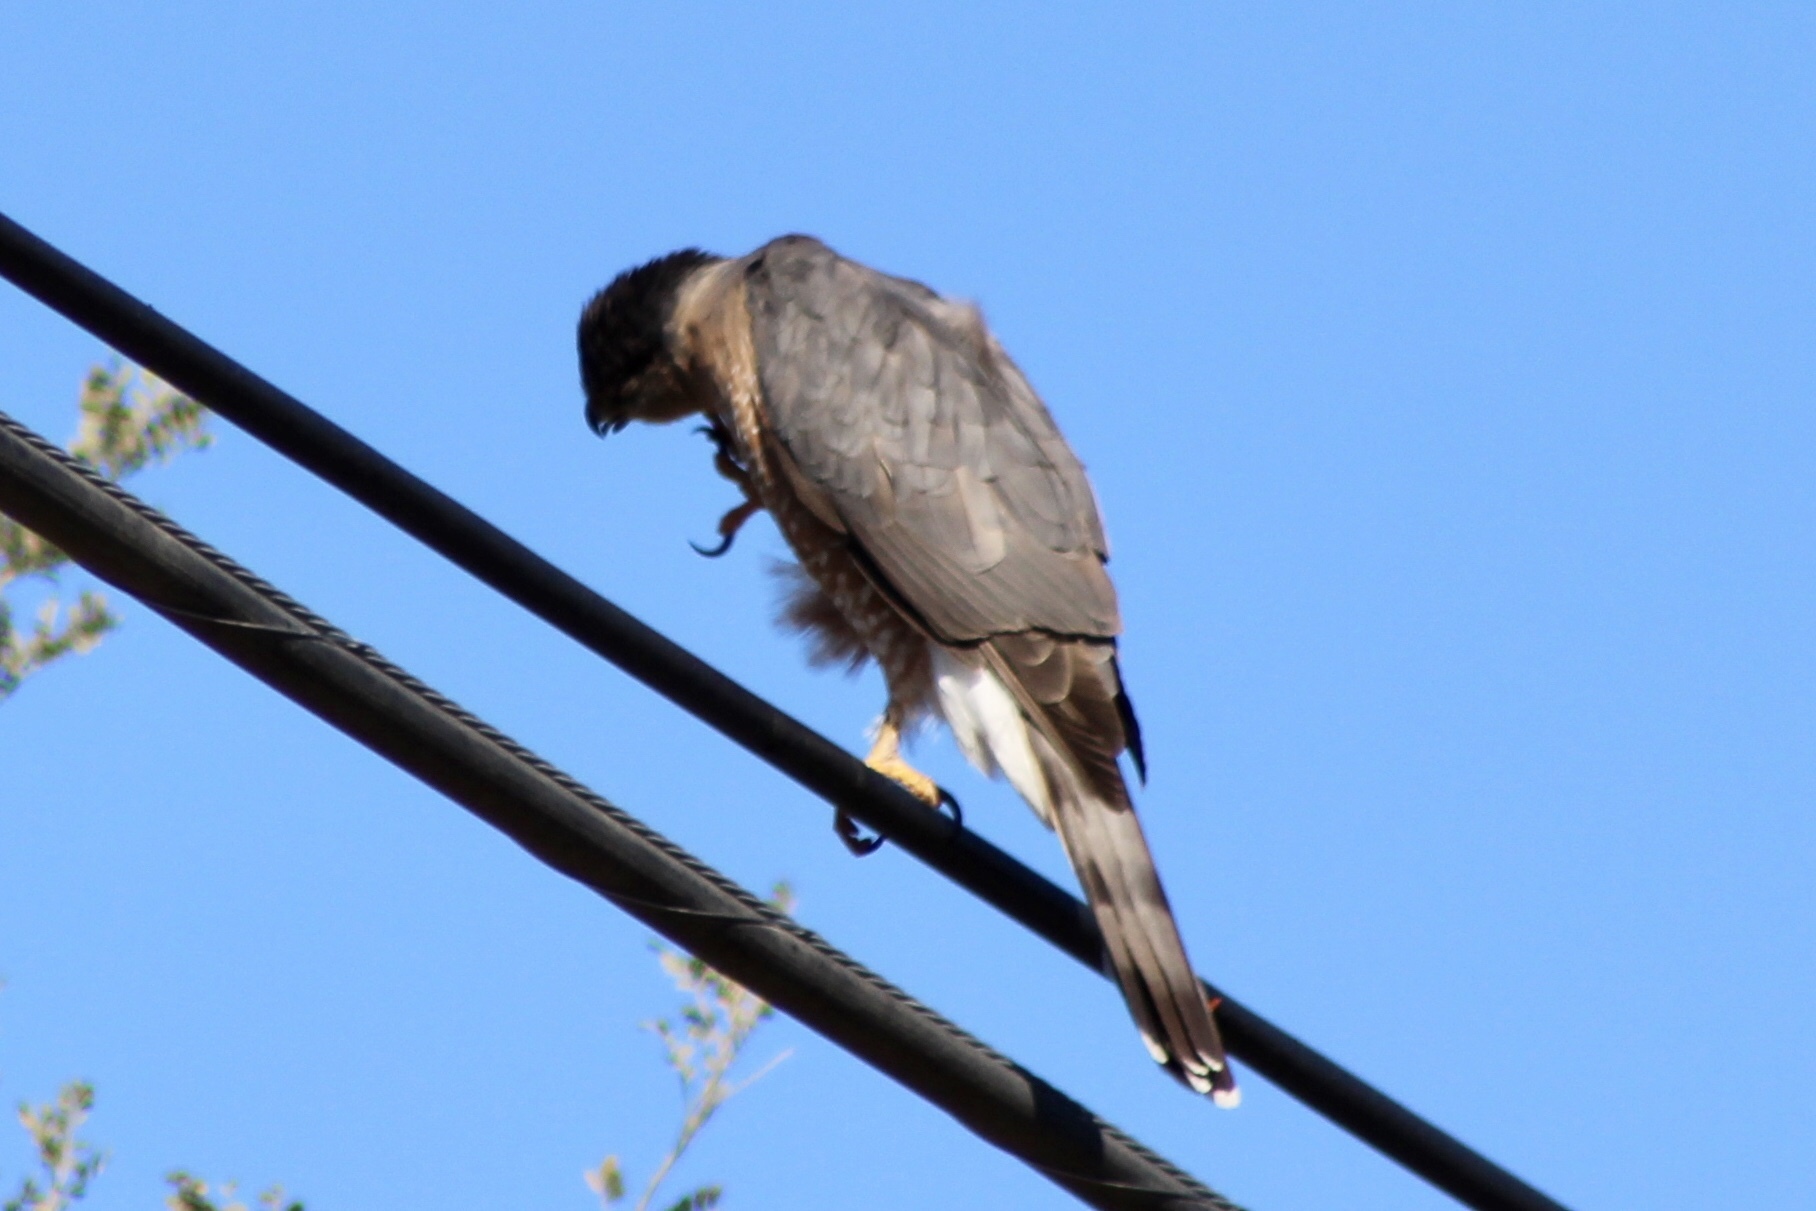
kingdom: Animalia
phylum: Chordata
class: Aves
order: Accipitriformes
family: Accipitridae
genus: Accipiter
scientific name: Accipiter cooperii
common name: Cooper's hawk
